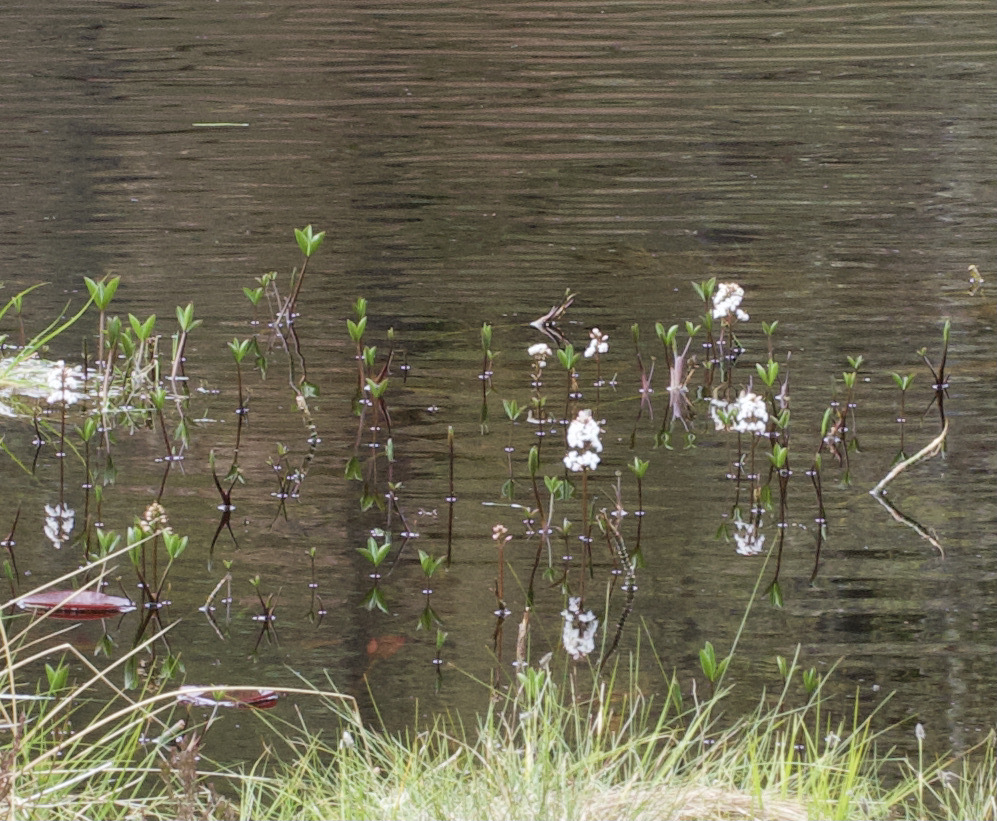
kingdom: Plantae
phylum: Tracheophyta
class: Magnoliopsida
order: Asterales
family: Menyanthaceae
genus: Menyanthes
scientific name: Menyanthes trifoliata
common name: Bogbean
